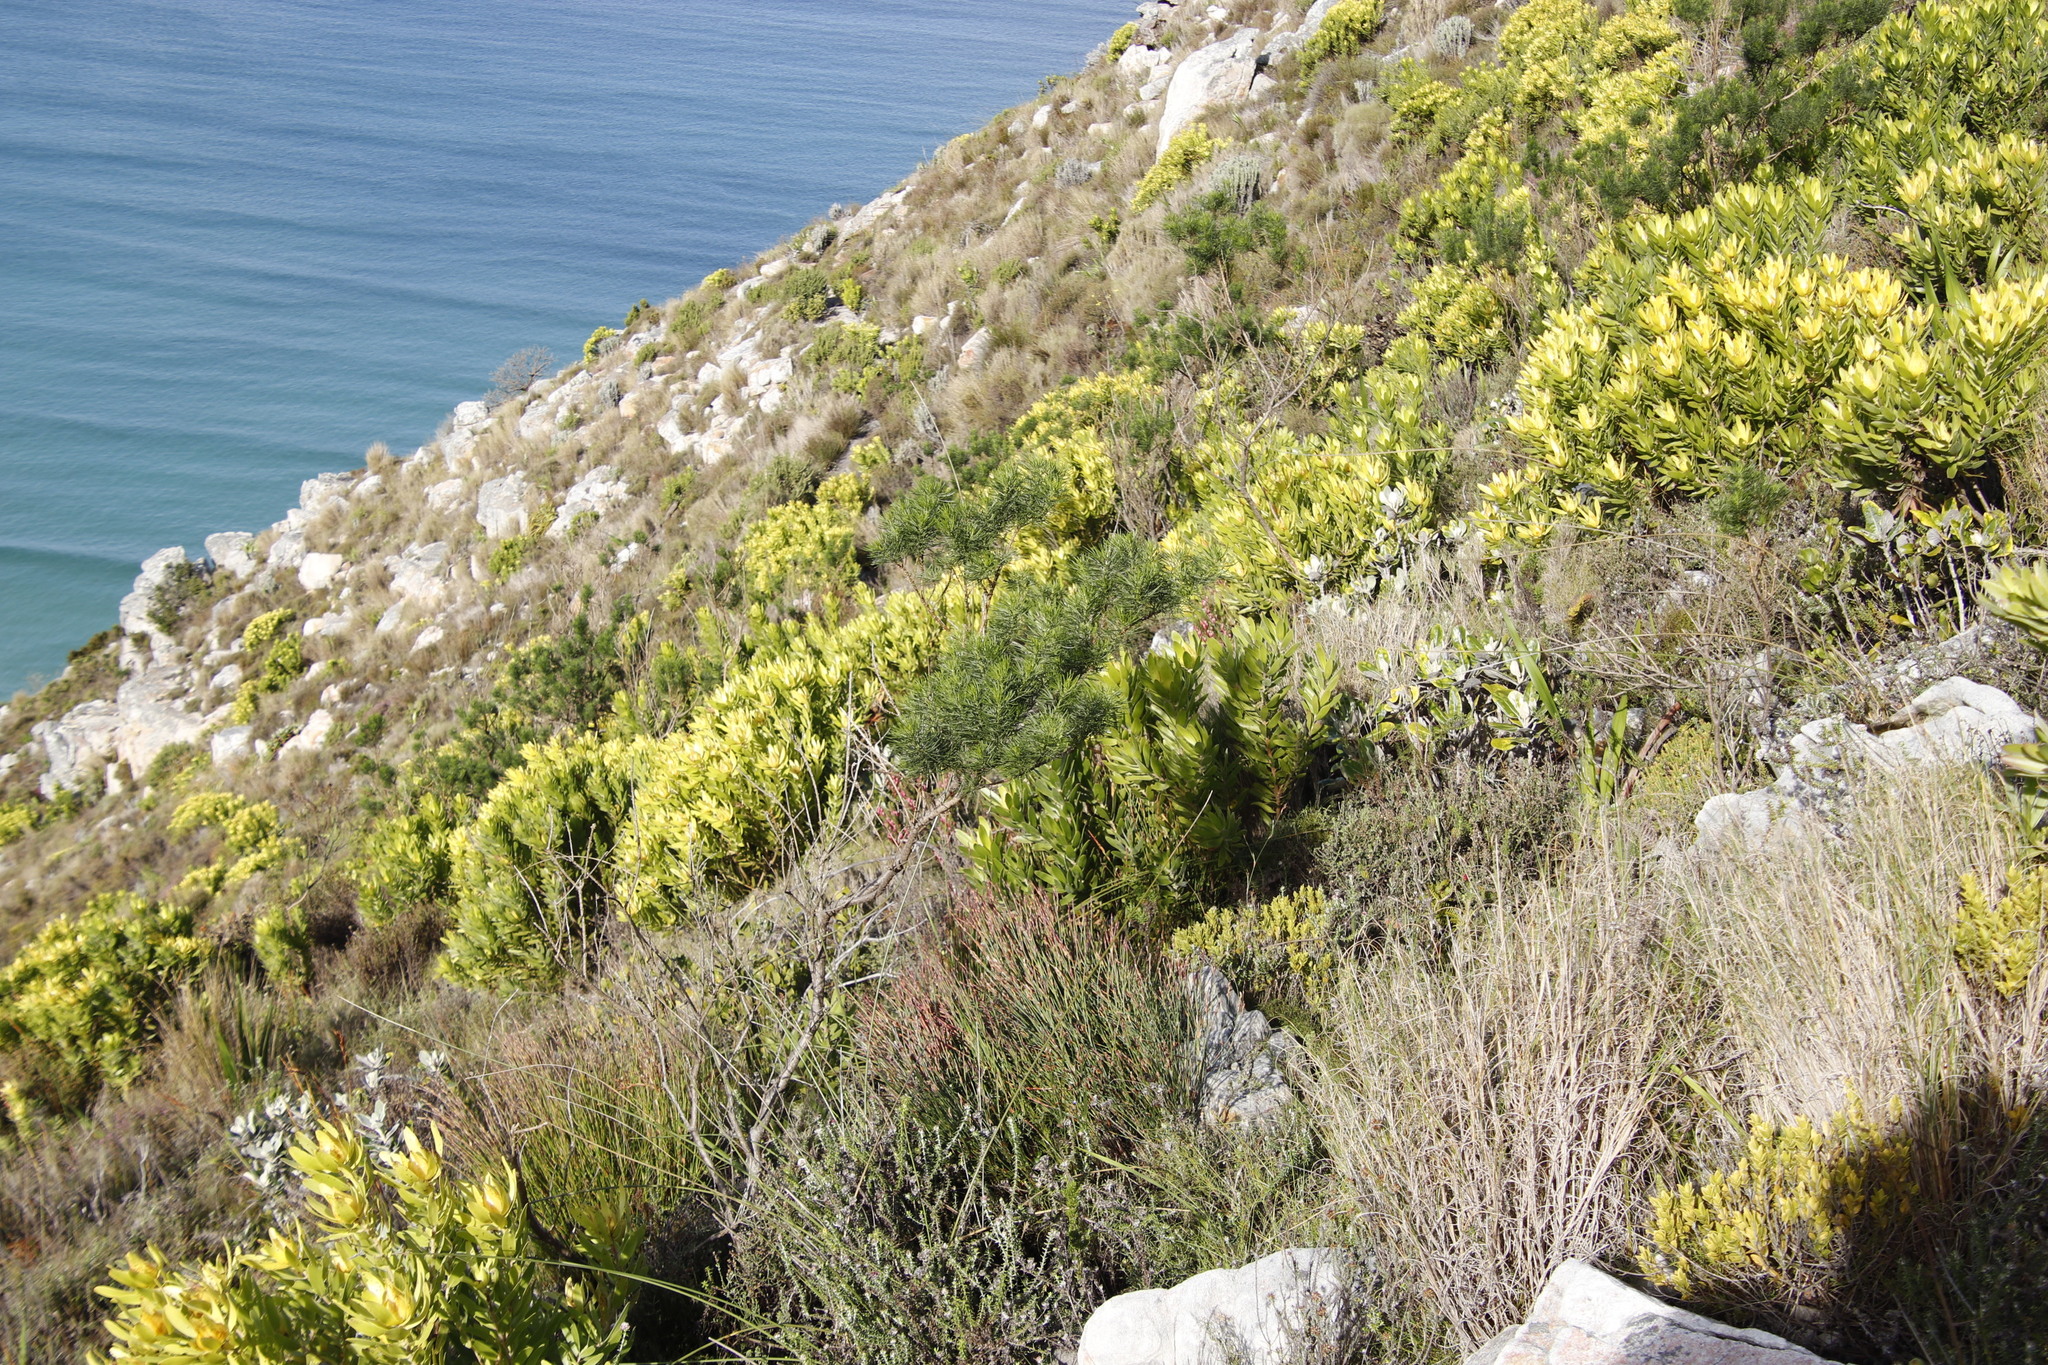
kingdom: Plantae
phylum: Tracheophyta
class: Magnoliopsida
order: Fabales
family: Fabaceae
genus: Psoralea
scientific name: Psoralea pinnata
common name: African scurfpea
